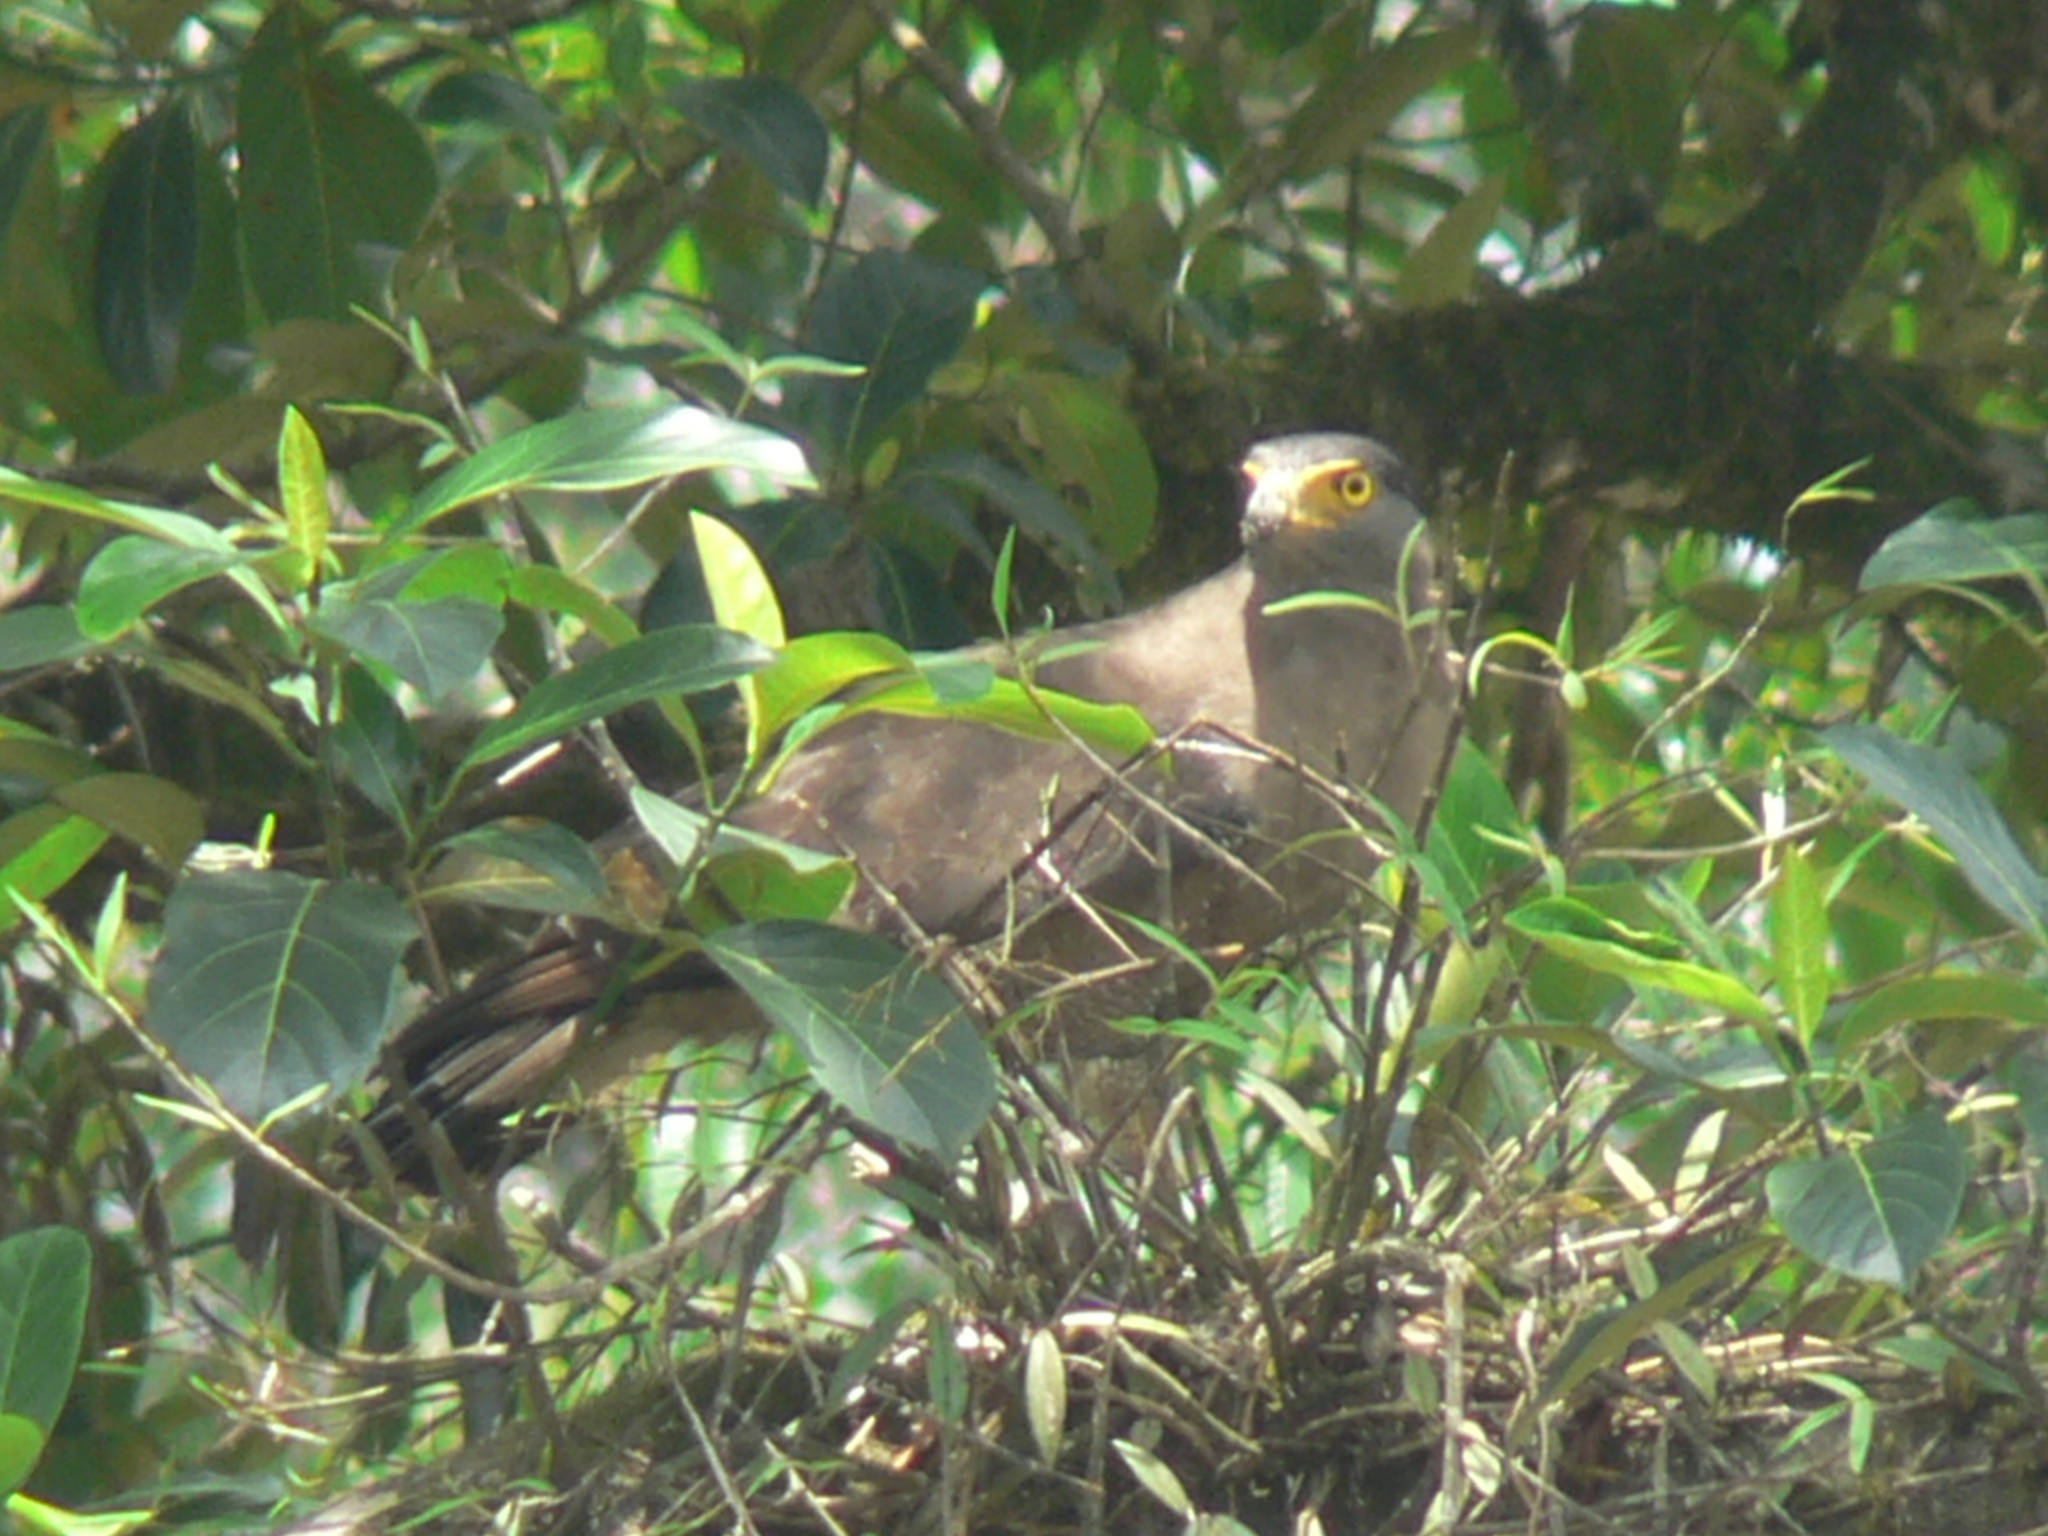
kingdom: Animalia
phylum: Chordata
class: Aves
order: Accipitriformes
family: Accipitridae
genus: Spilornis
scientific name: Spilornis cheela
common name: Crested serpent eagle
